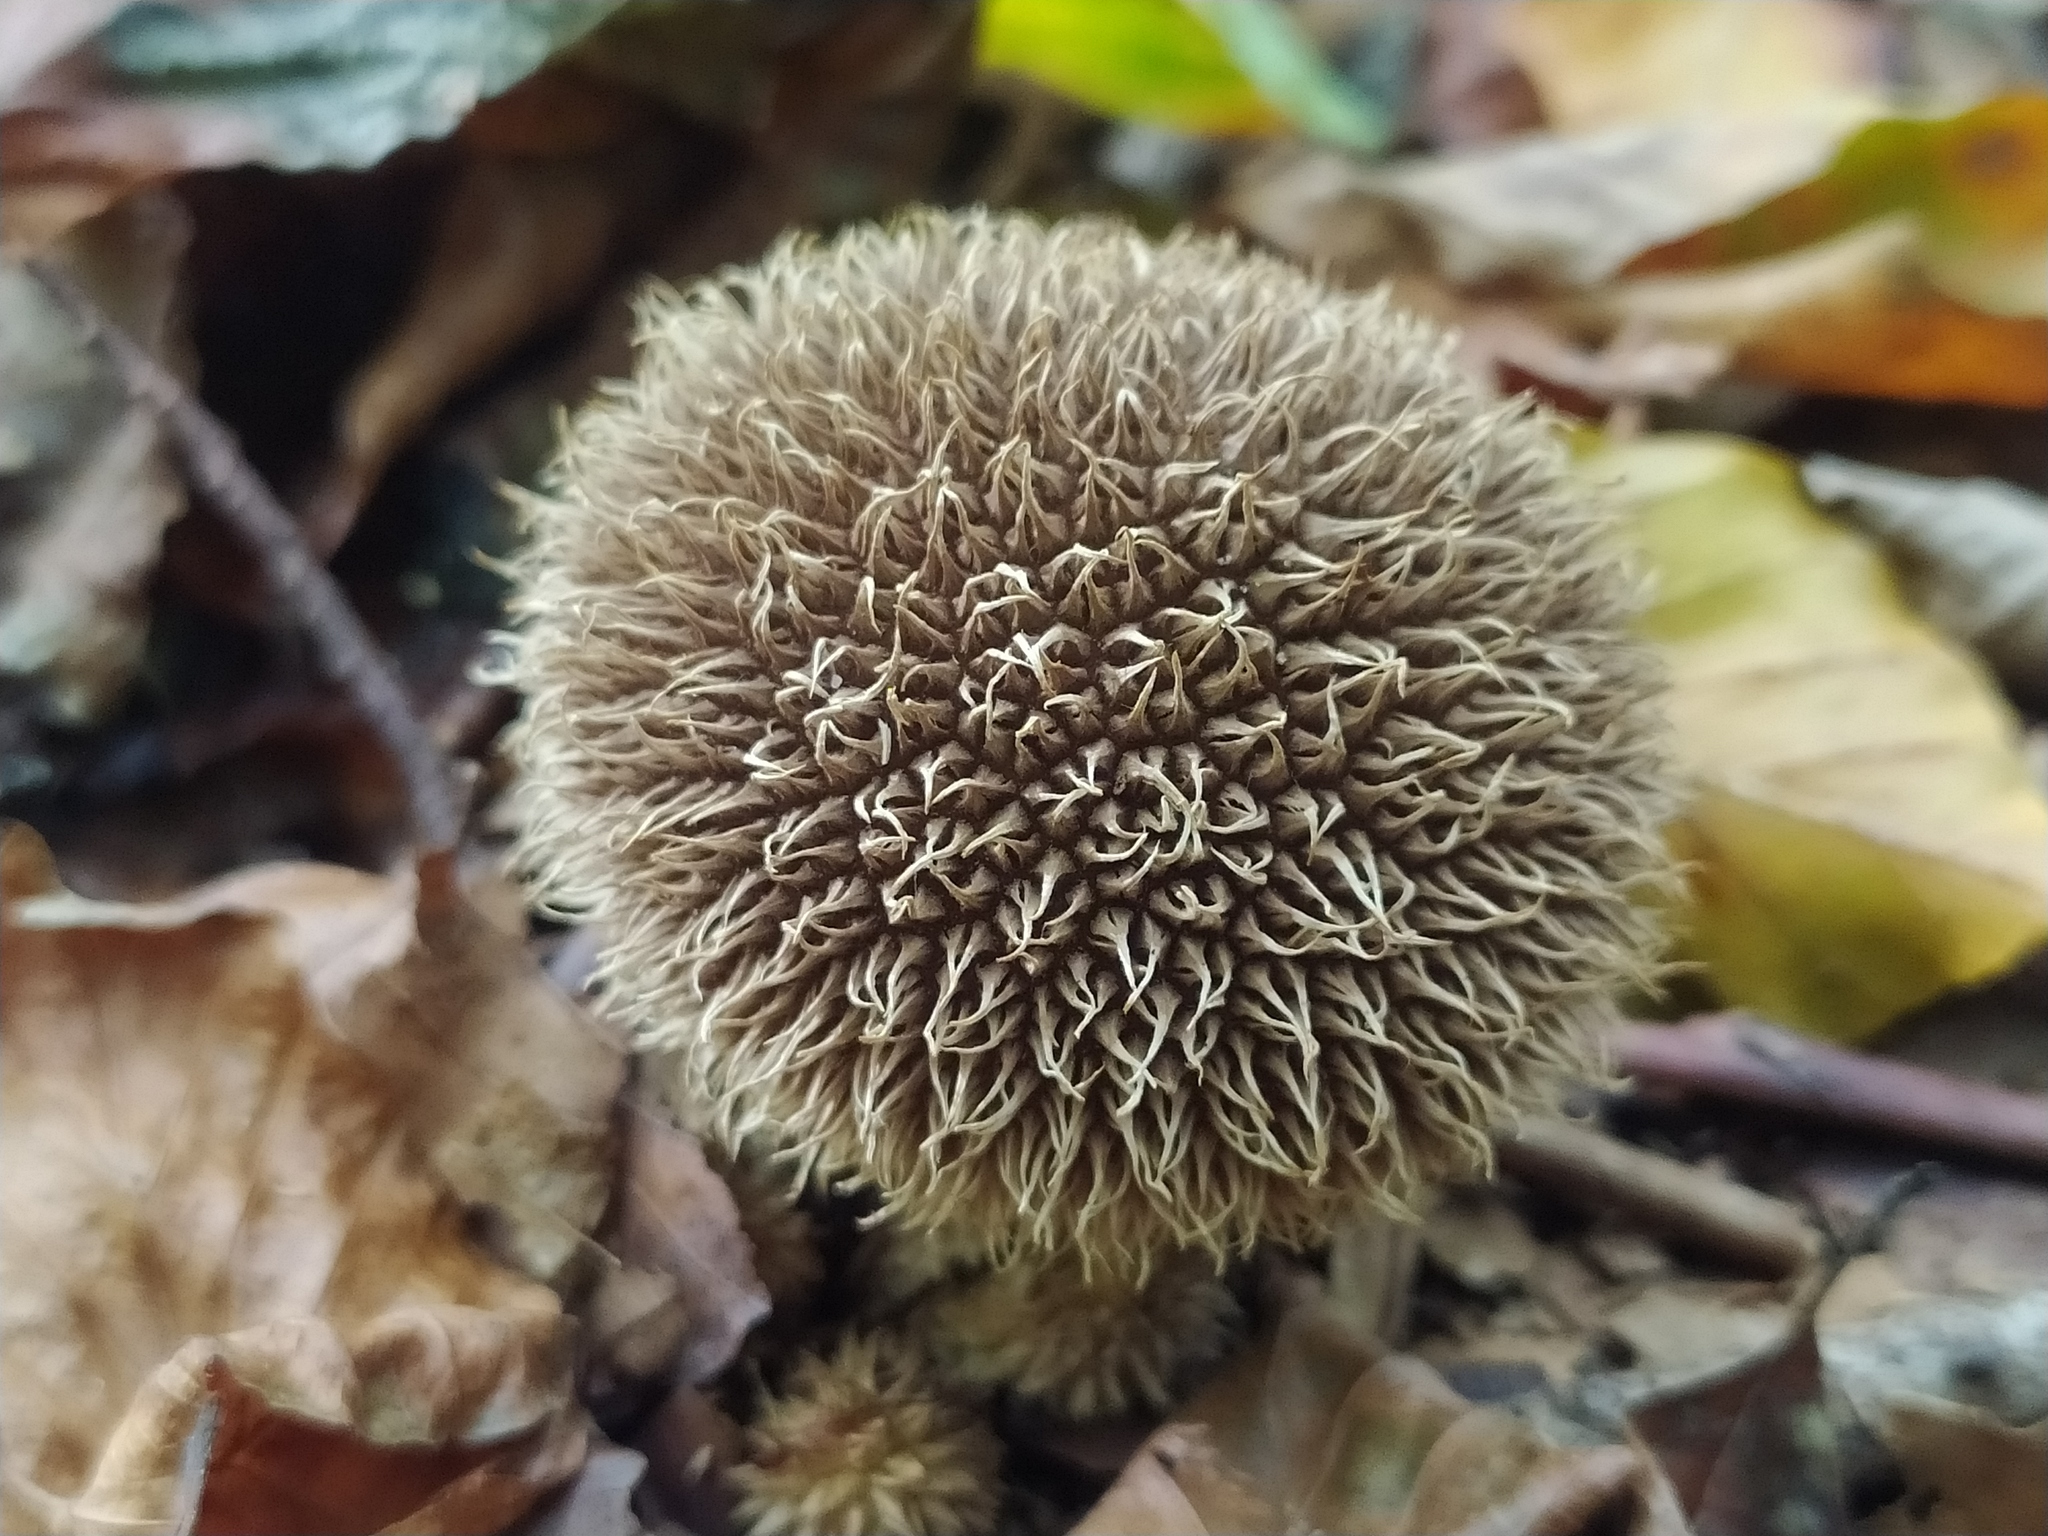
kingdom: Fungi
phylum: Basidiomycota
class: Agaricomycetes
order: Agaricales
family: Lycoperdaceae
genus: Lycoperdon
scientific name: Lycoperdon echinatum
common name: Hedgehog puffball
